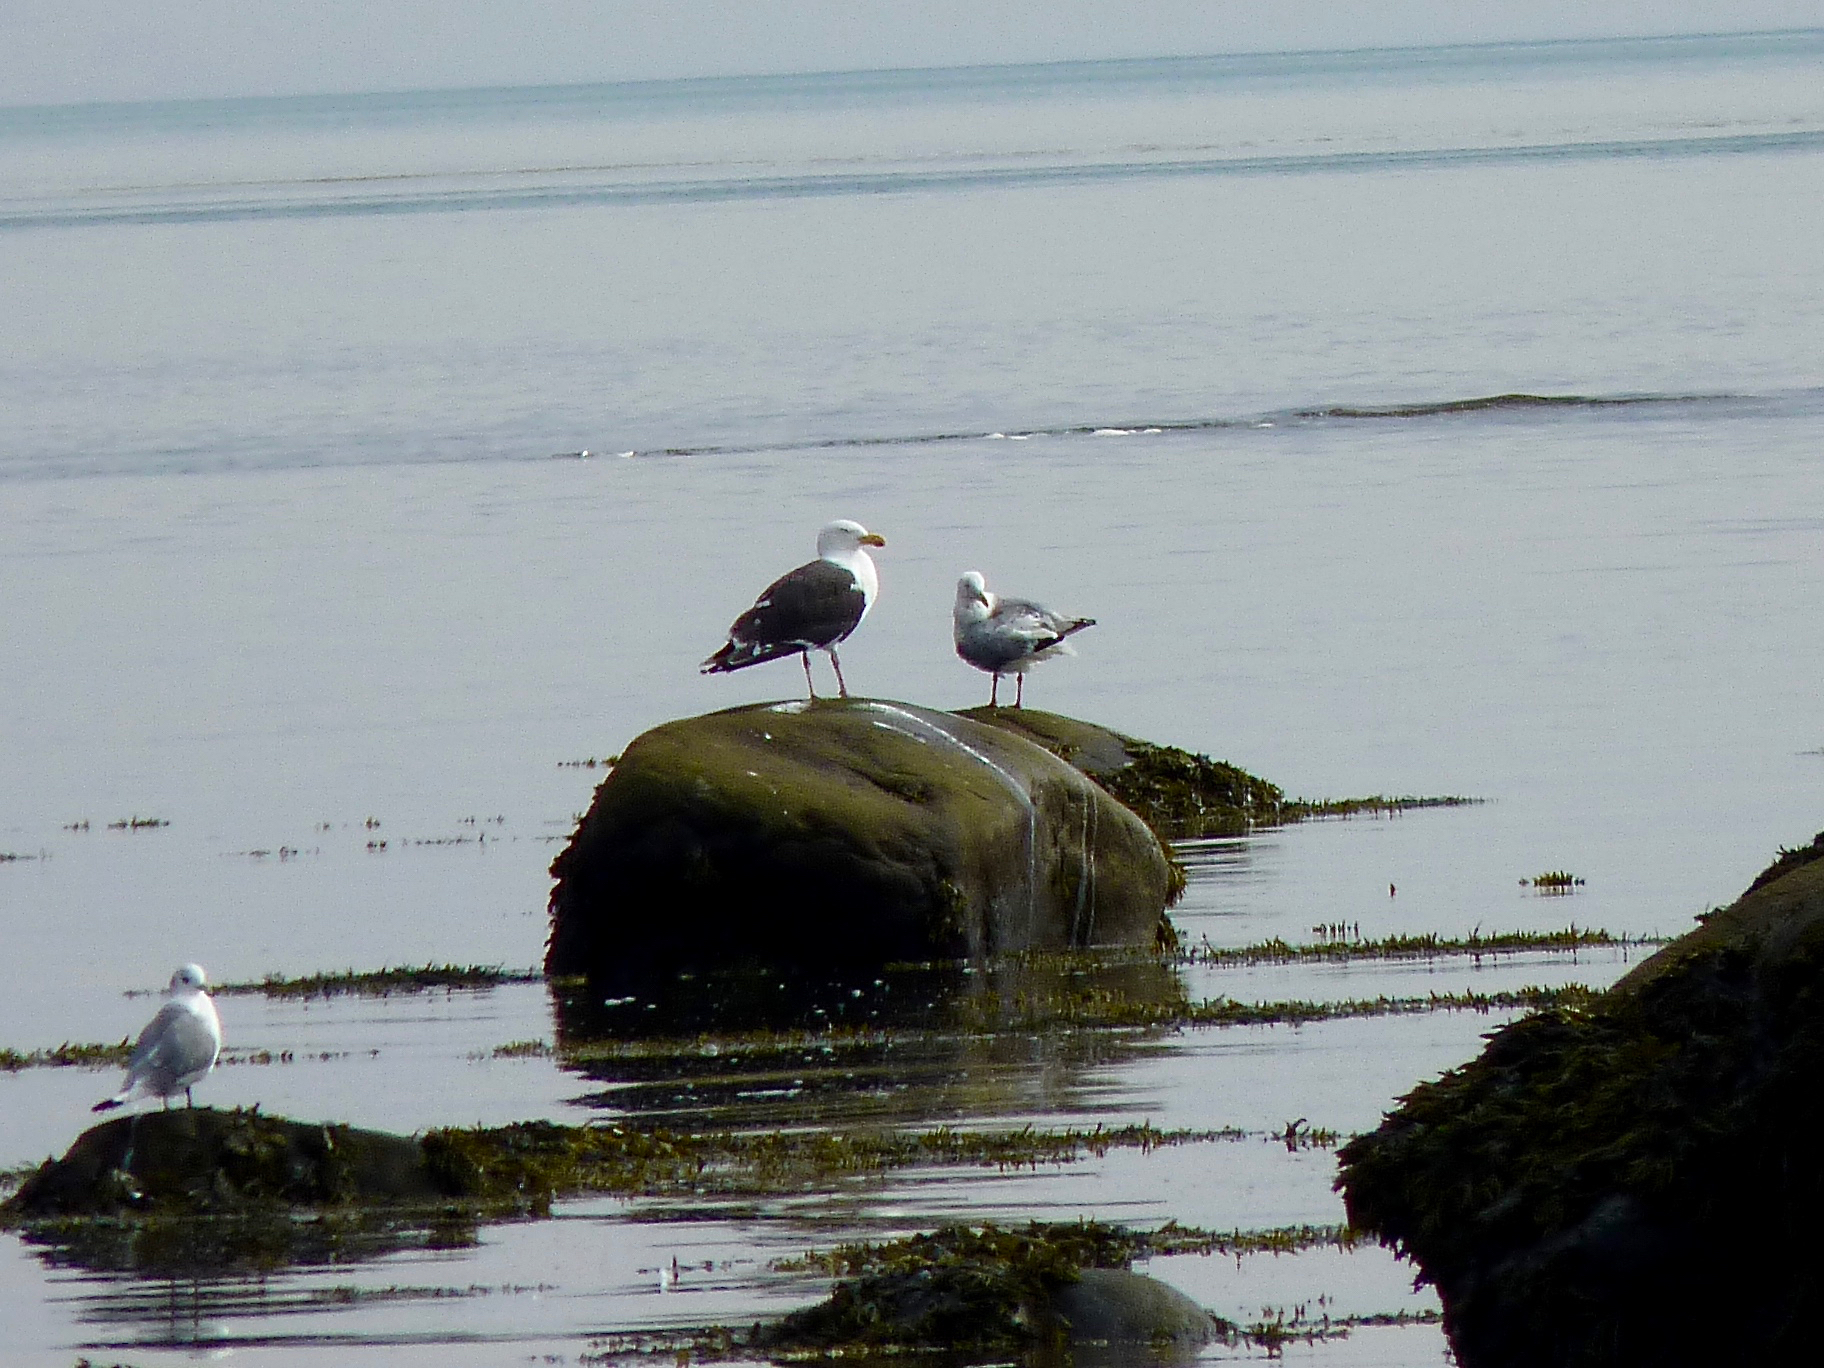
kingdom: Animalia
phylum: Chordata
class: Aves
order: Charadriiformes
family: Laridae
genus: Larus
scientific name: Larus marinus
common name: Great black-backed gull
